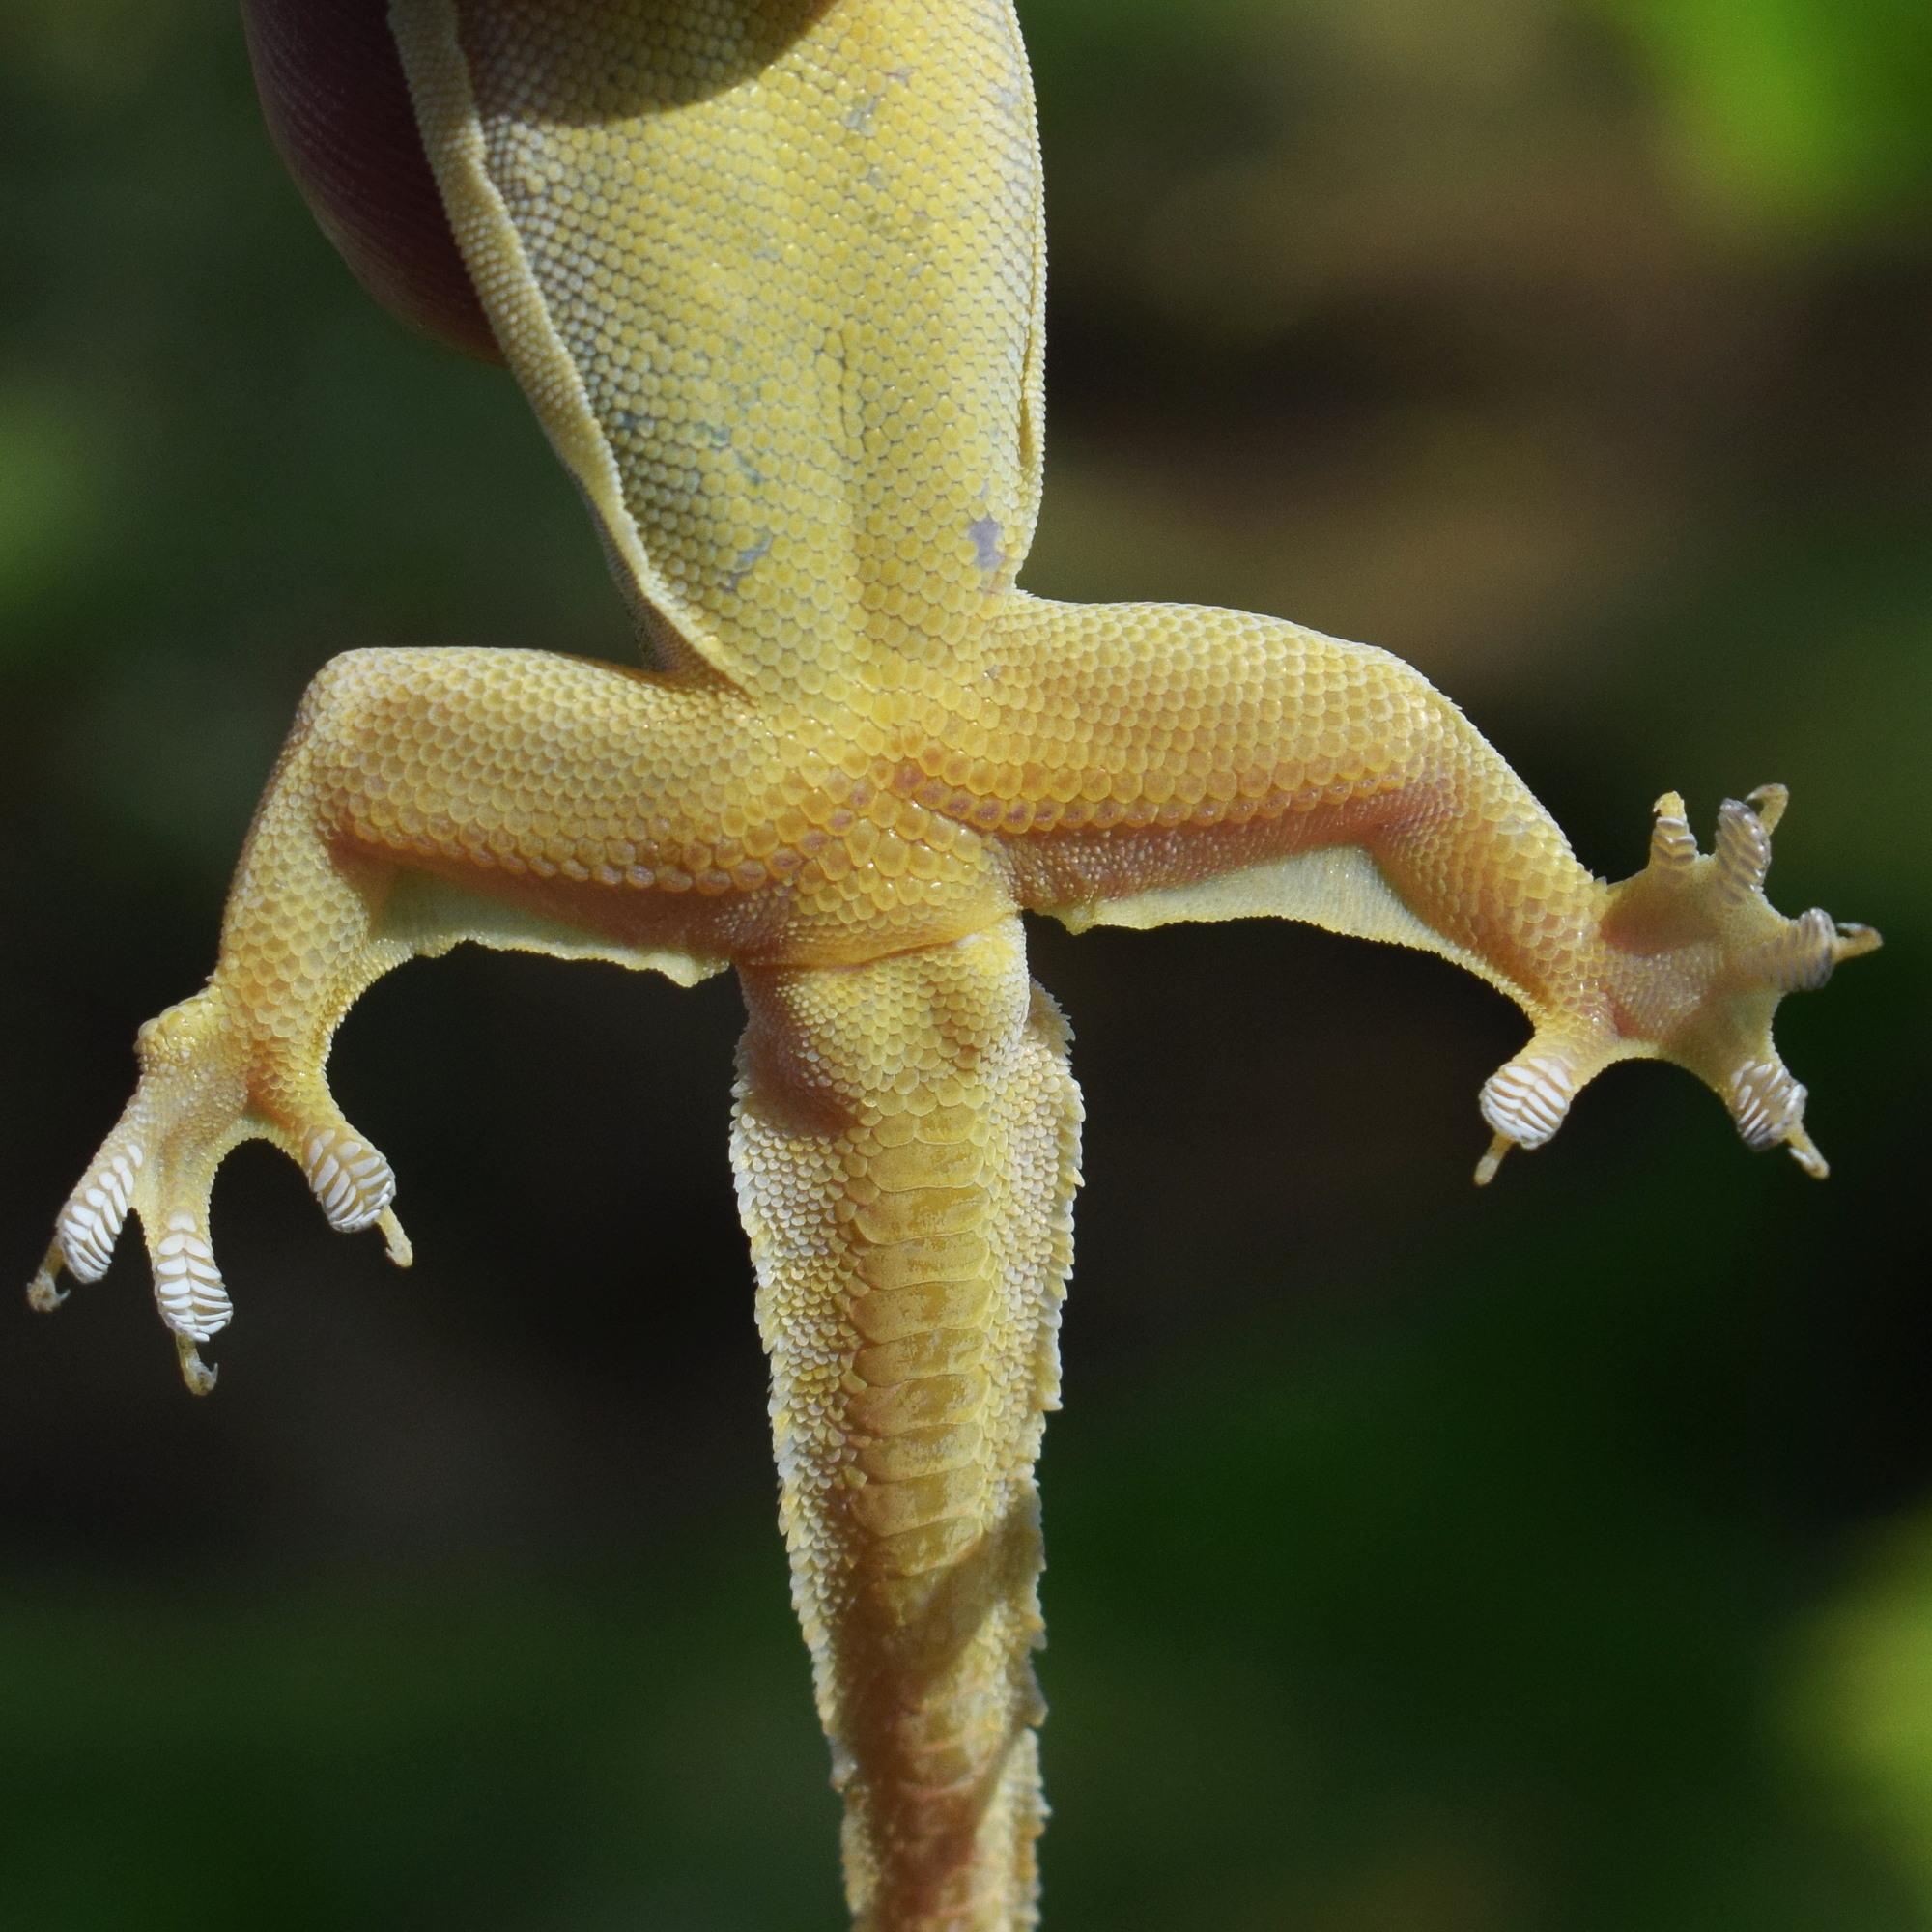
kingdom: Animalia
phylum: Chordata
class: Squamata
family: Gekkonidae
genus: Hemidactylus
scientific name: Hemidactylus platyurus
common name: Flat-tailed house gecko
